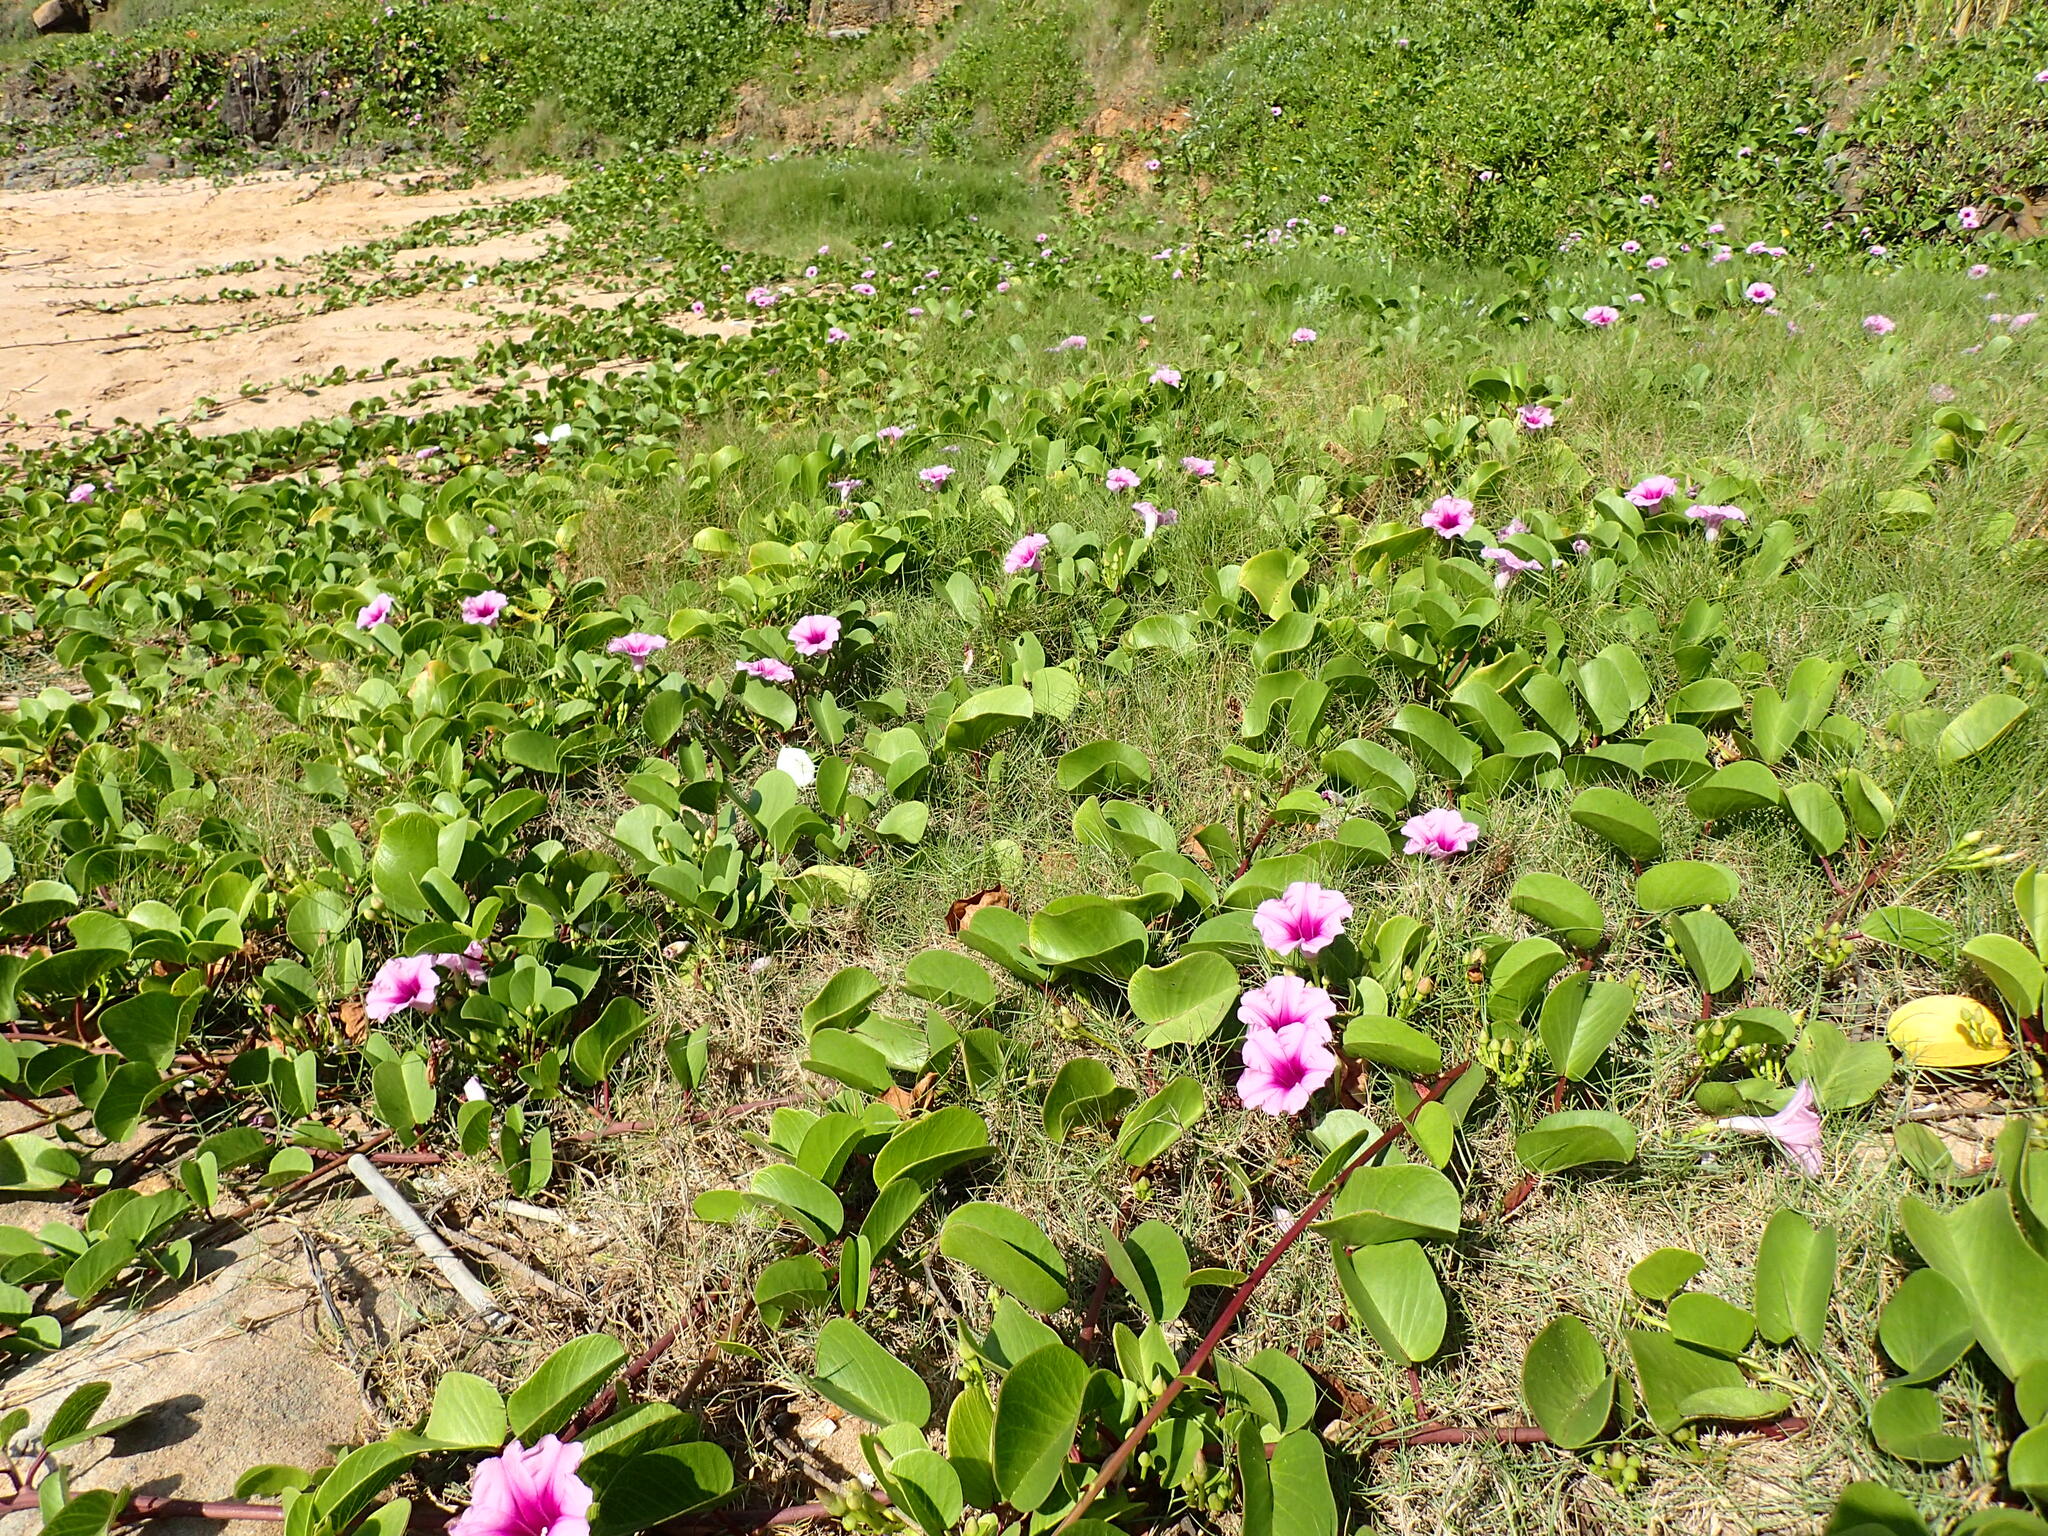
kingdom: Plantae
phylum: Tracheophyta
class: Magnoliopsida
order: Solanales
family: Convolvulaceae
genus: Ipomoea
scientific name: Ipomoea pes-caprae
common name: Beach morning glory
